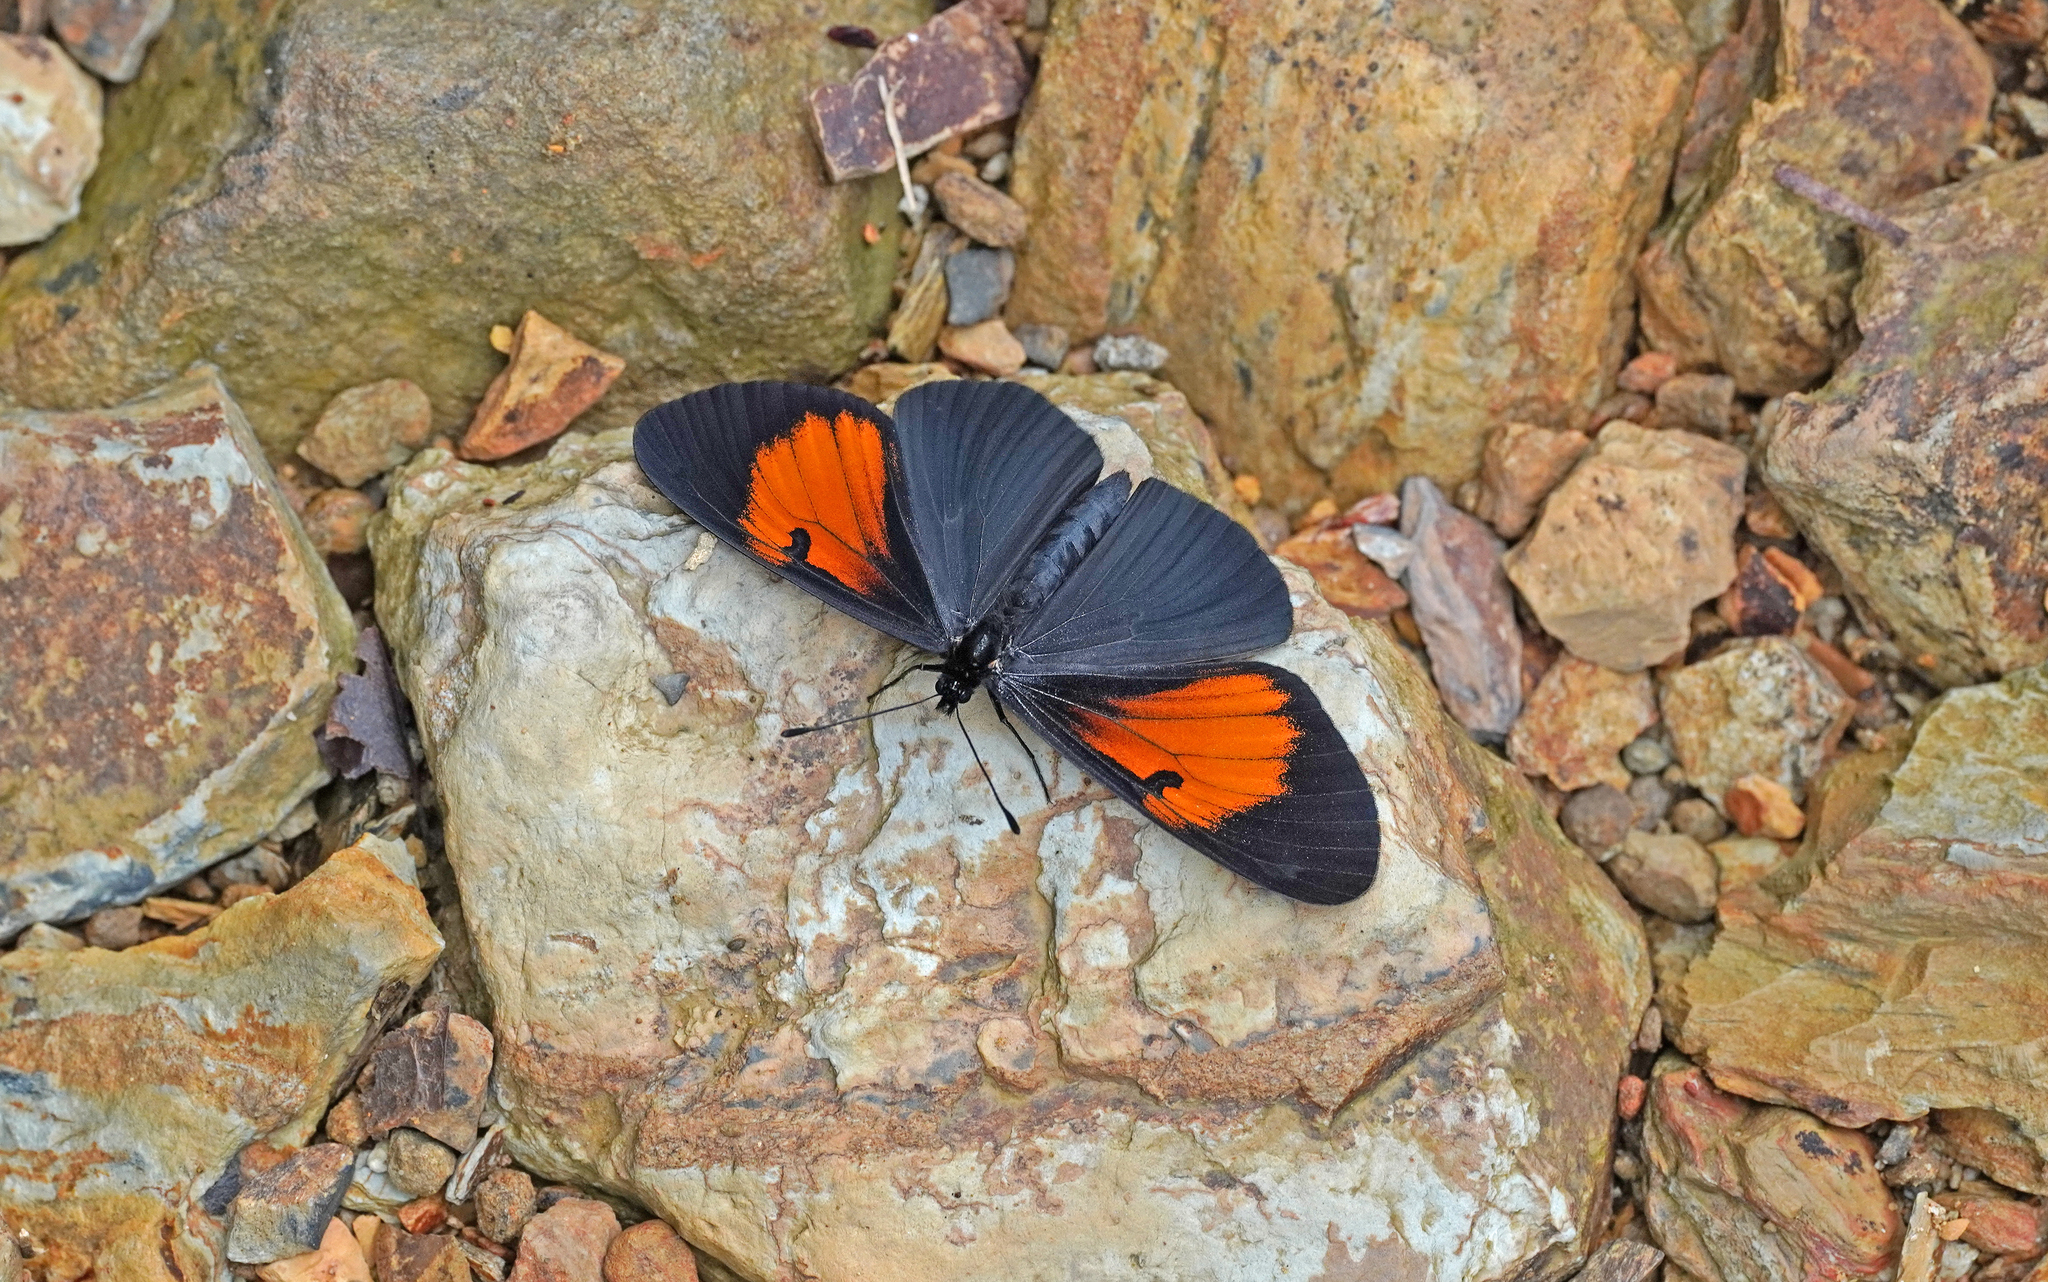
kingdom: Animalia
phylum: Arthropoda
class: Insecta
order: Lepidoptera
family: Nymphalidae
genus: Actinote
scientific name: Actinote stratonice
